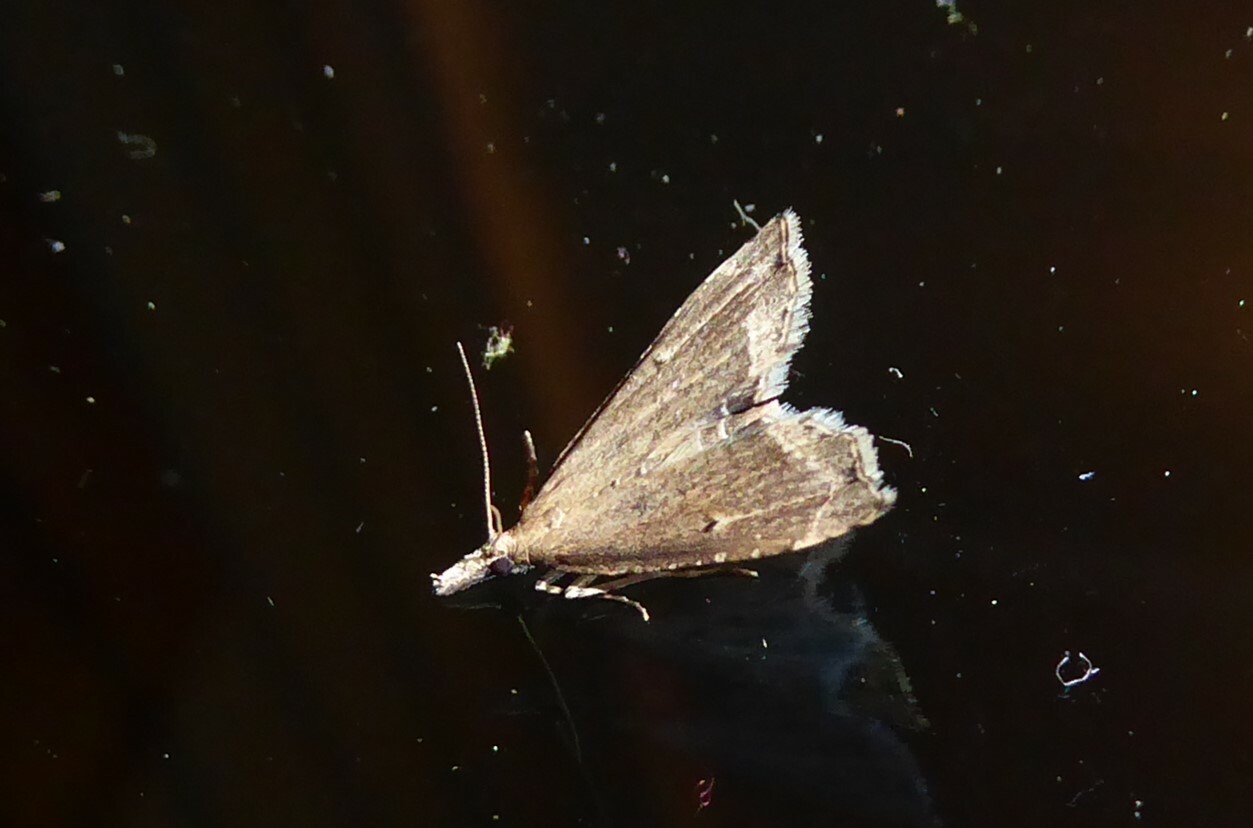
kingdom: Animalia
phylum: Arthropoda
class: Insecta
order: Lepidoptera
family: Crambidae
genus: Diplopseustis
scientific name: Diplopseustis perieresalis
